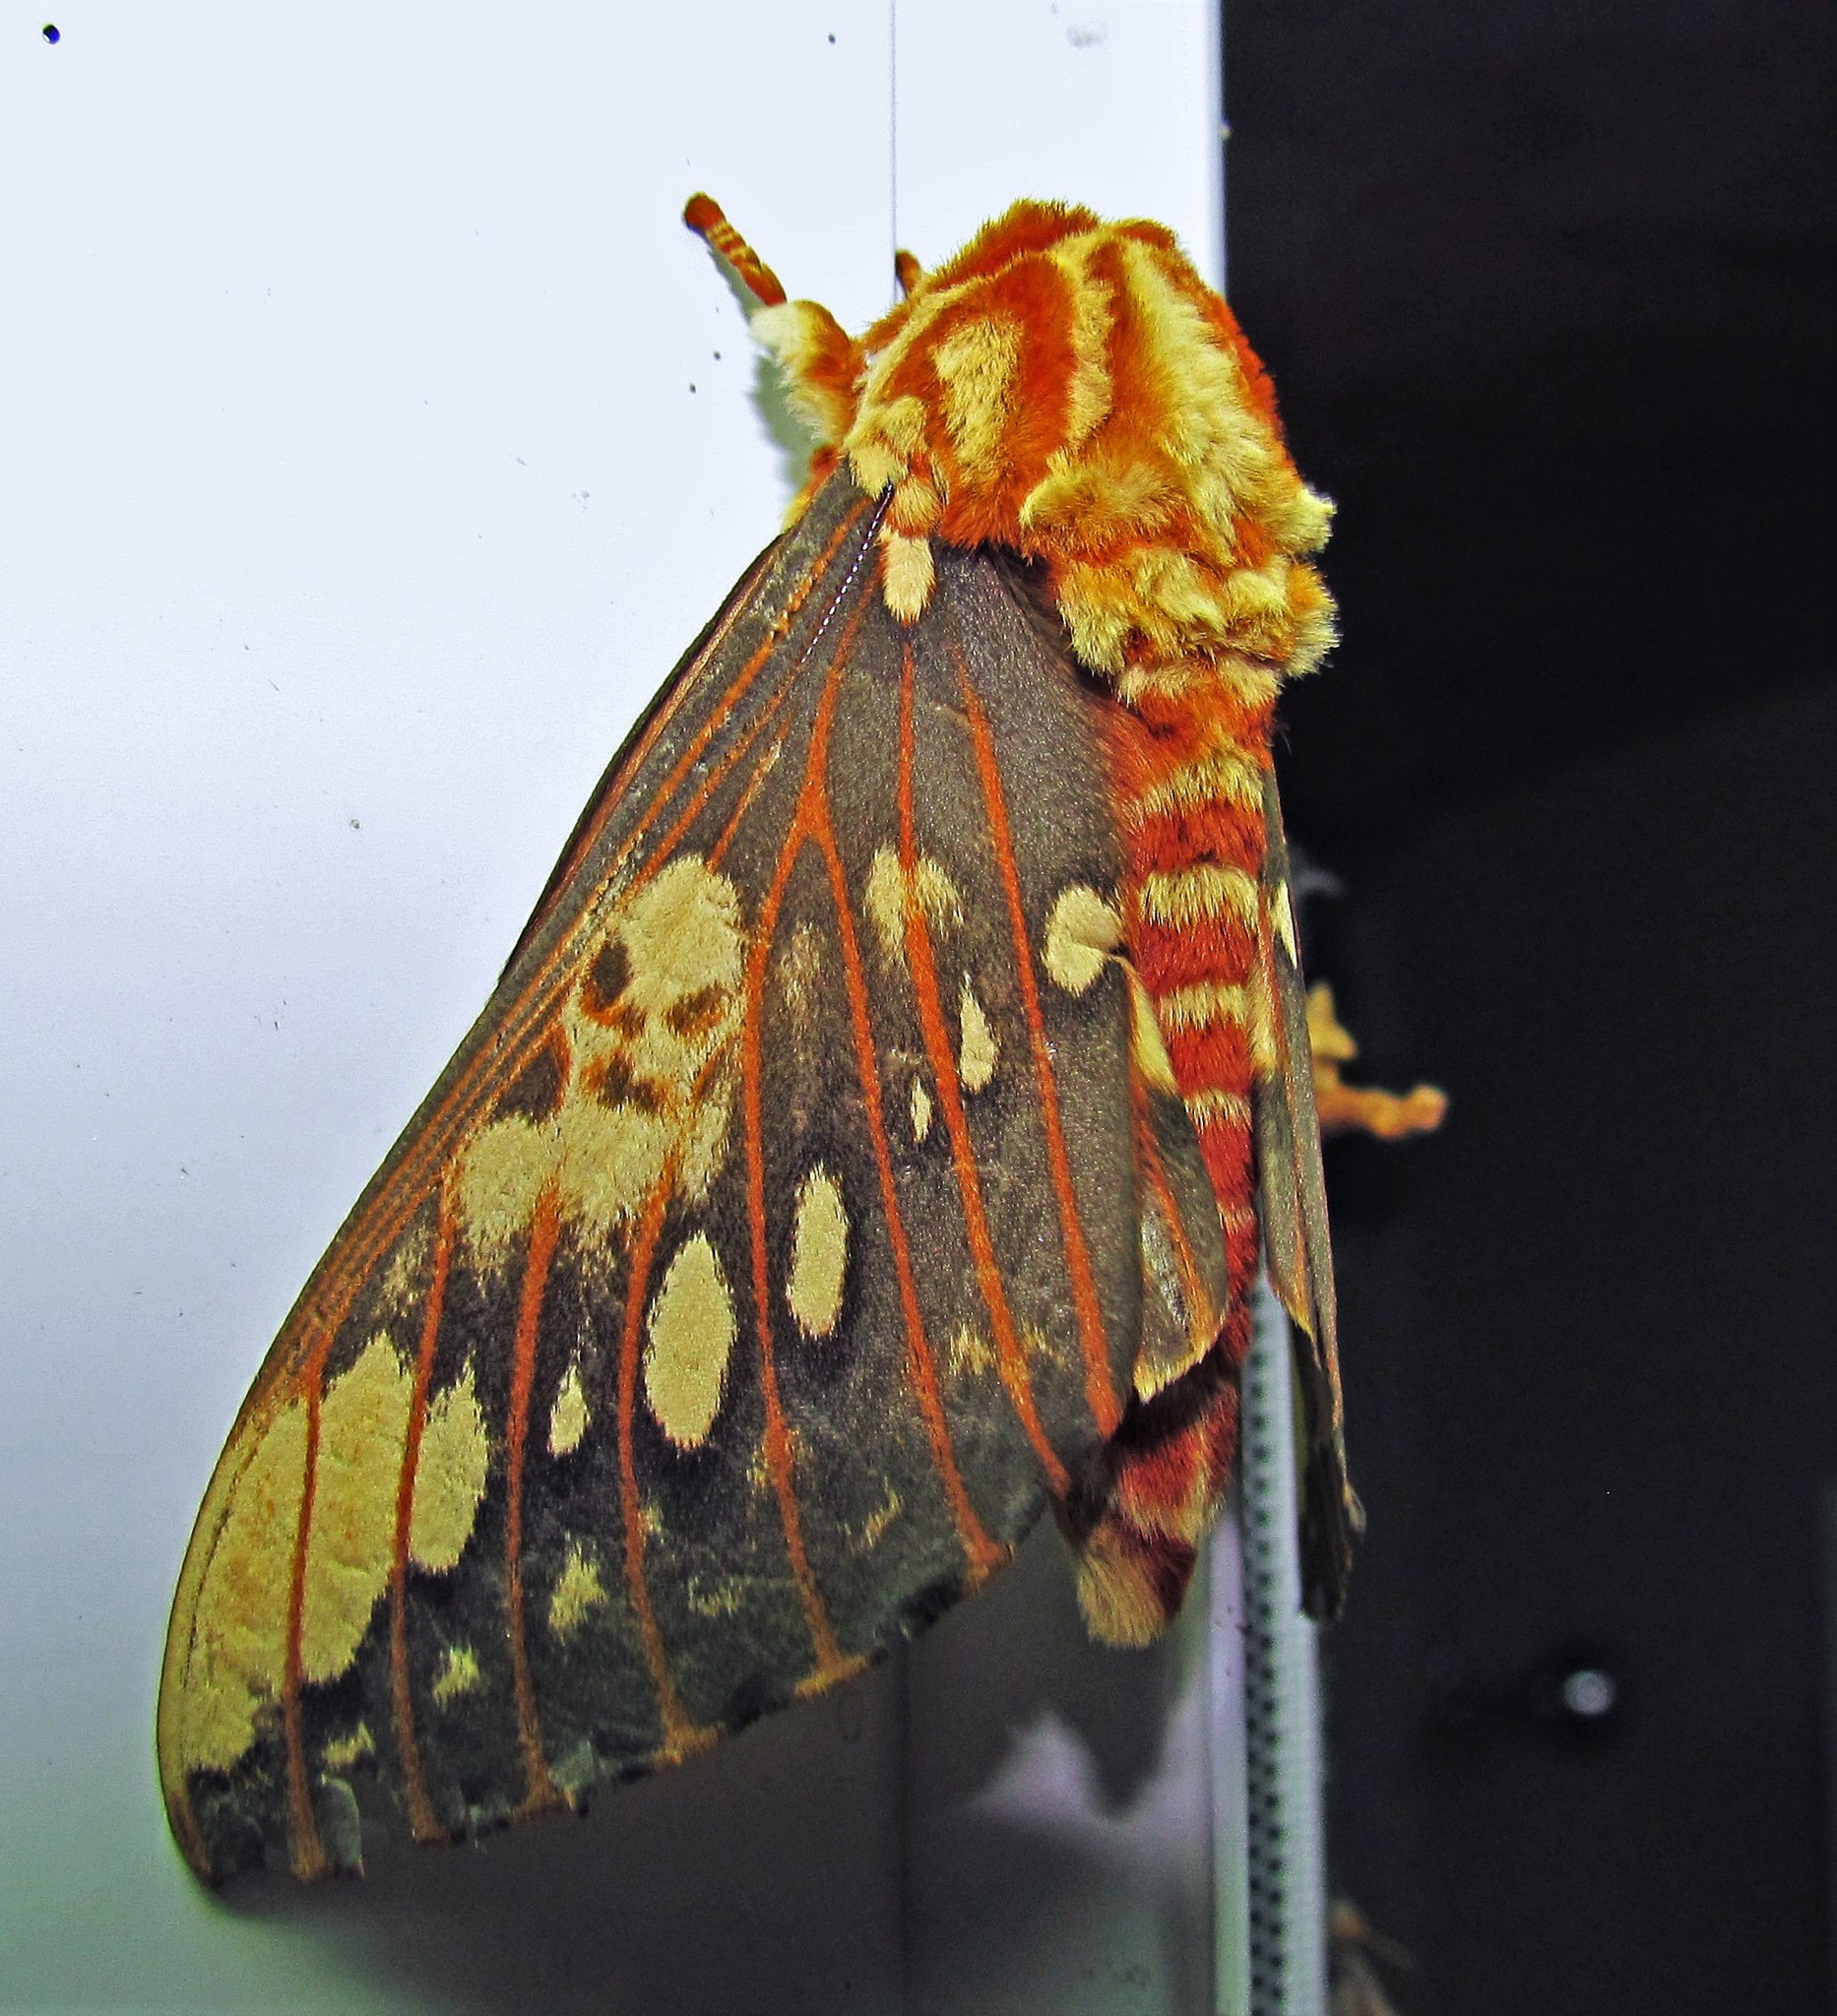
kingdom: Animalia
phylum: Arthropoda
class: Insecta
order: Lepidoptera
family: Saturniidae
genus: Citheronia
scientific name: Citheronia brissotii
